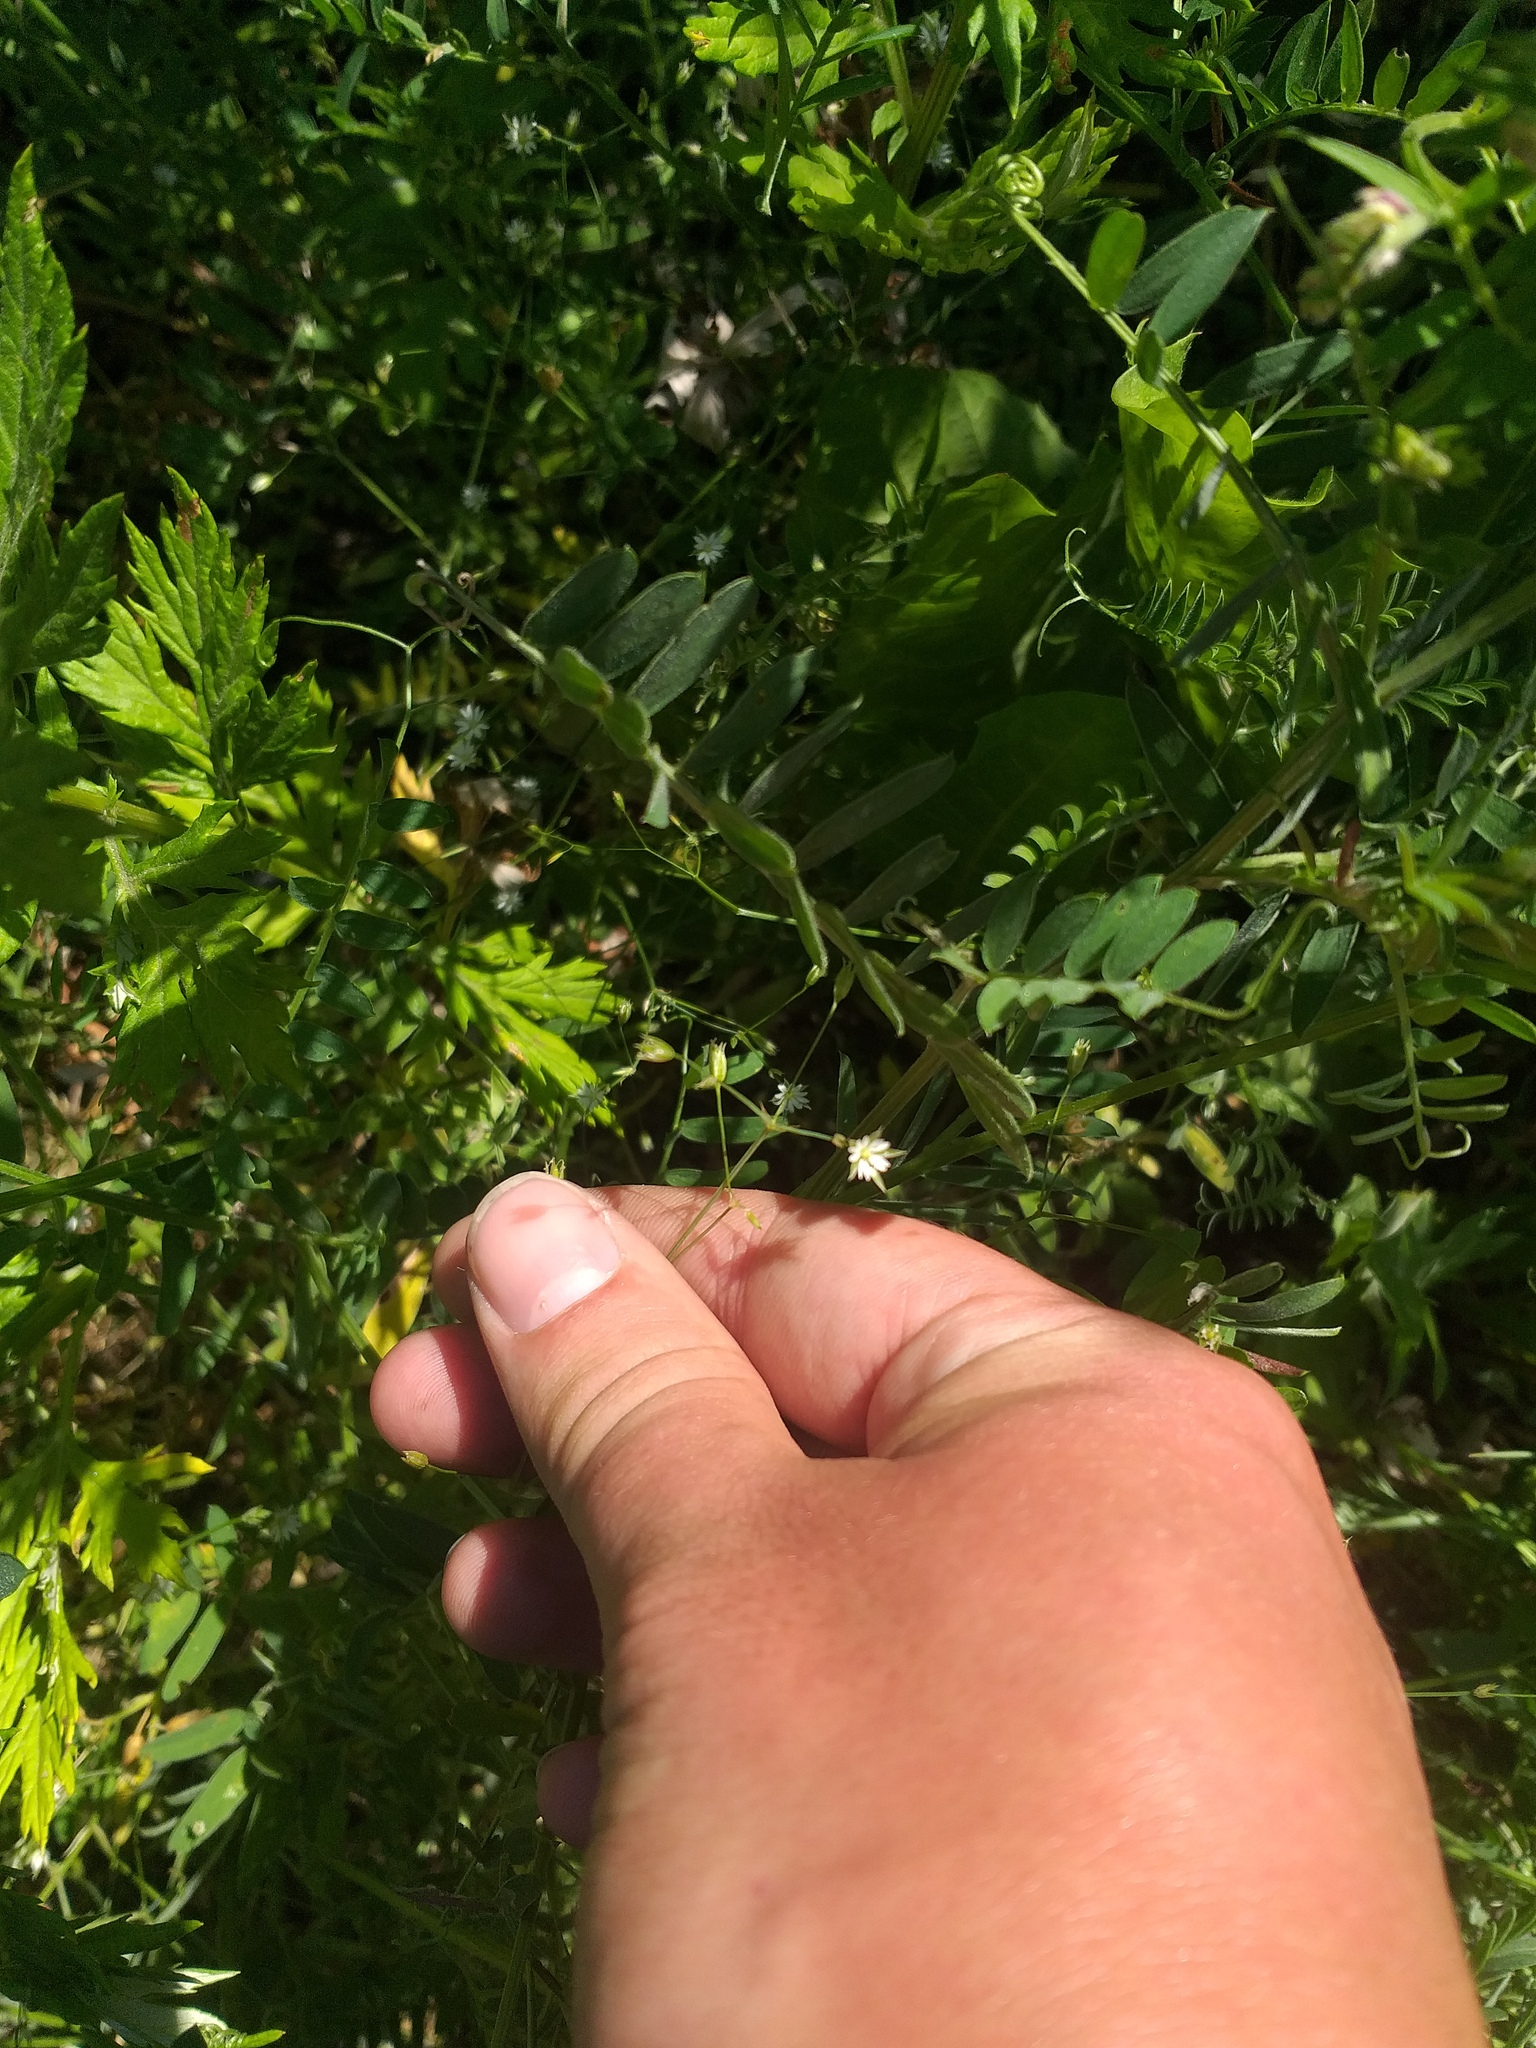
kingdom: Plantae
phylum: Tracheophyta
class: Magnoliopsida
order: Caryophyllales
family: Caryophyllaceae
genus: Stellaria
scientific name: Stellaria graminea
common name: Grass-like starwort
